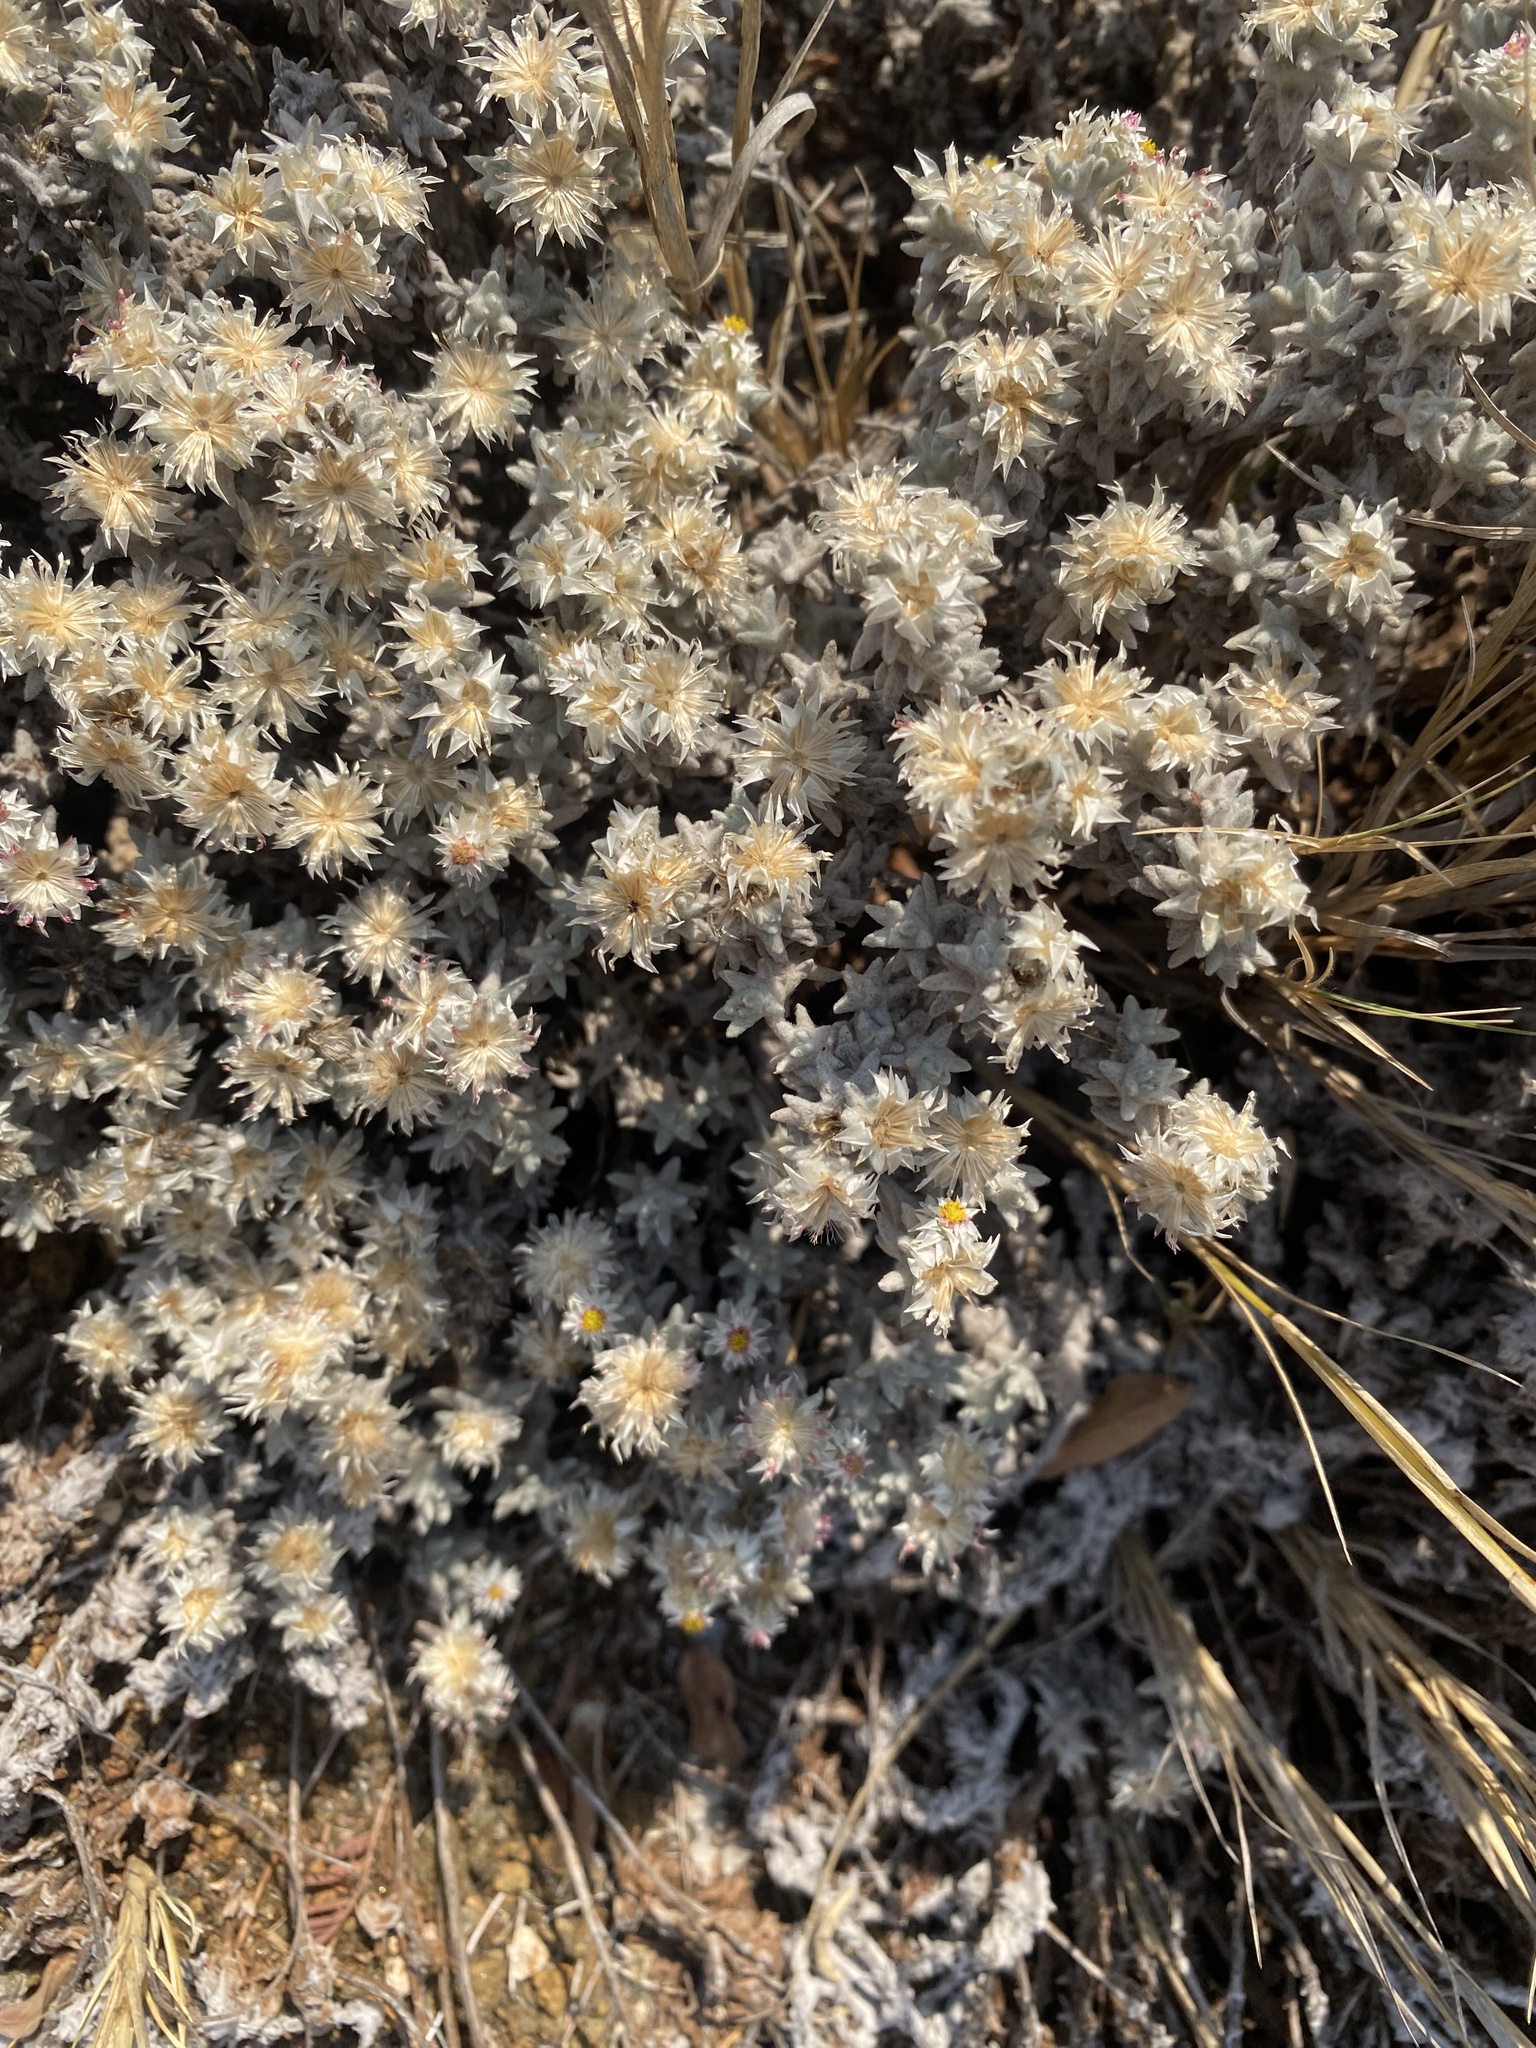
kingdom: Plantae
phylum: Tracheophyta
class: Magnoliopsida
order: Asterales
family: Asteraceae
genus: Helichrysum
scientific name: Helichrysum candolleanum
